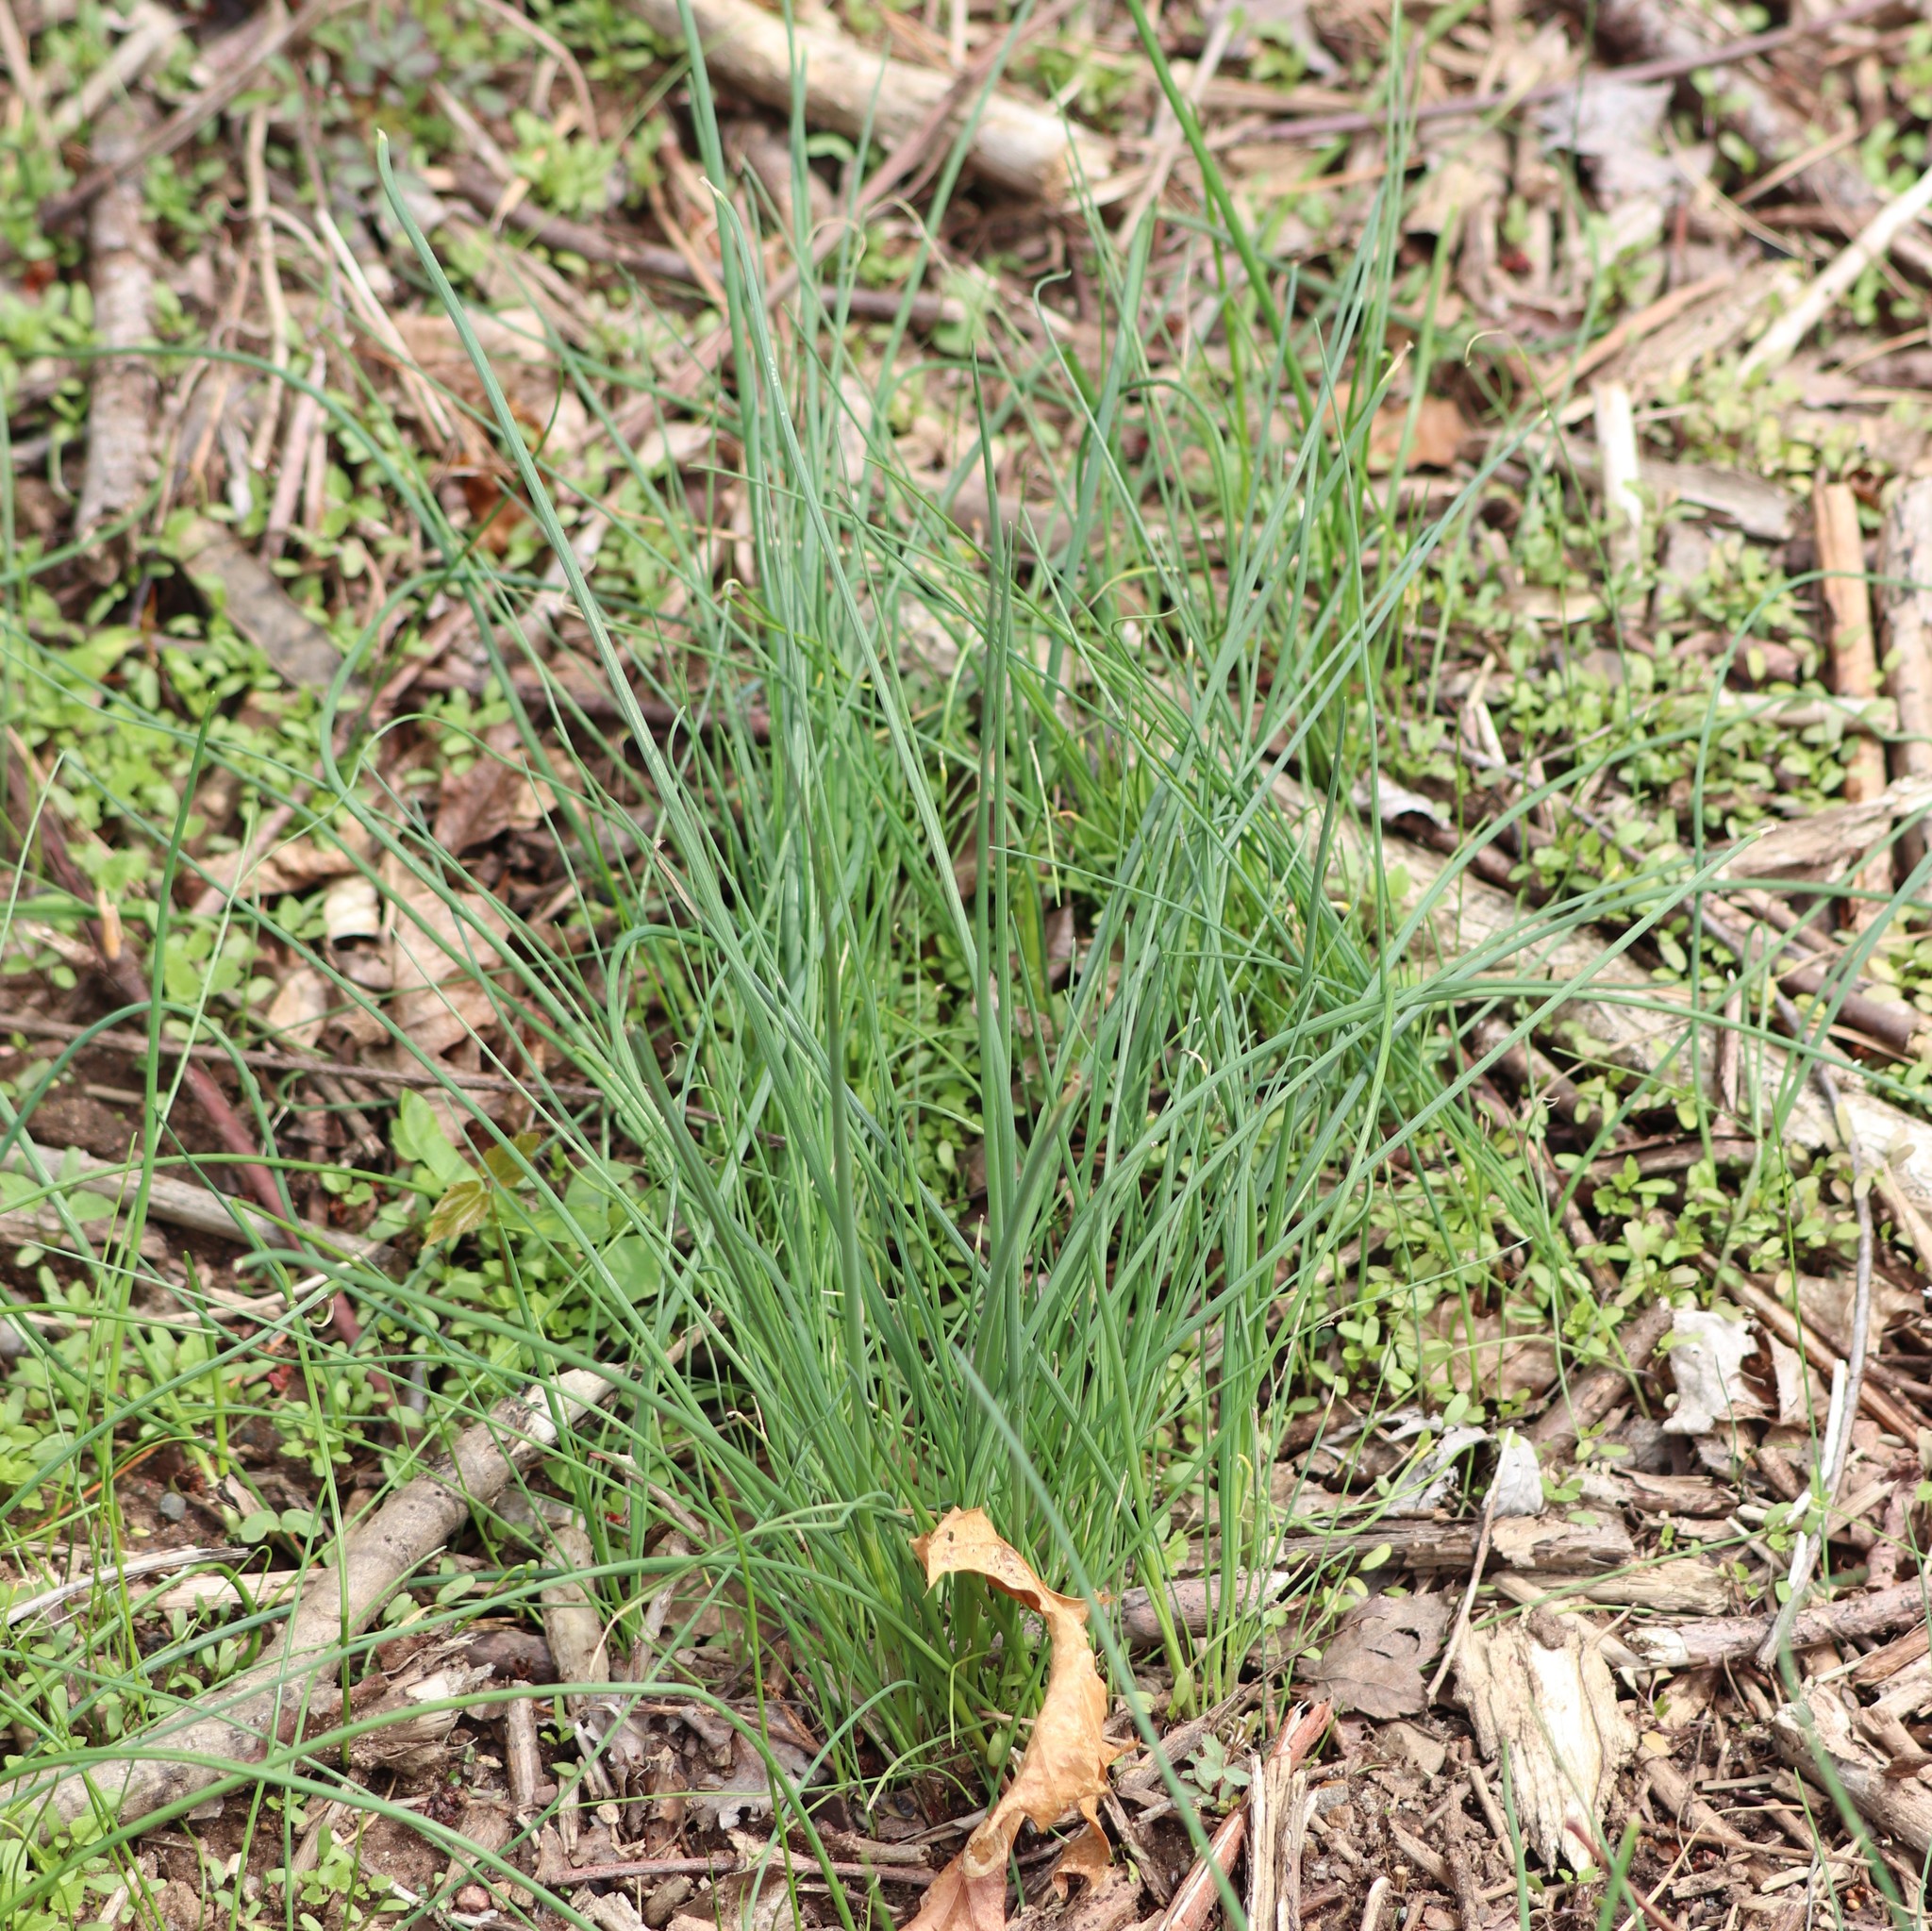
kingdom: Plantae
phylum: Tracheophyta
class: Liliopsida
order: Asparagales
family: Amaryllidaceae
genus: Allium
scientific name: Allium vineale
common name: Crow garlic
